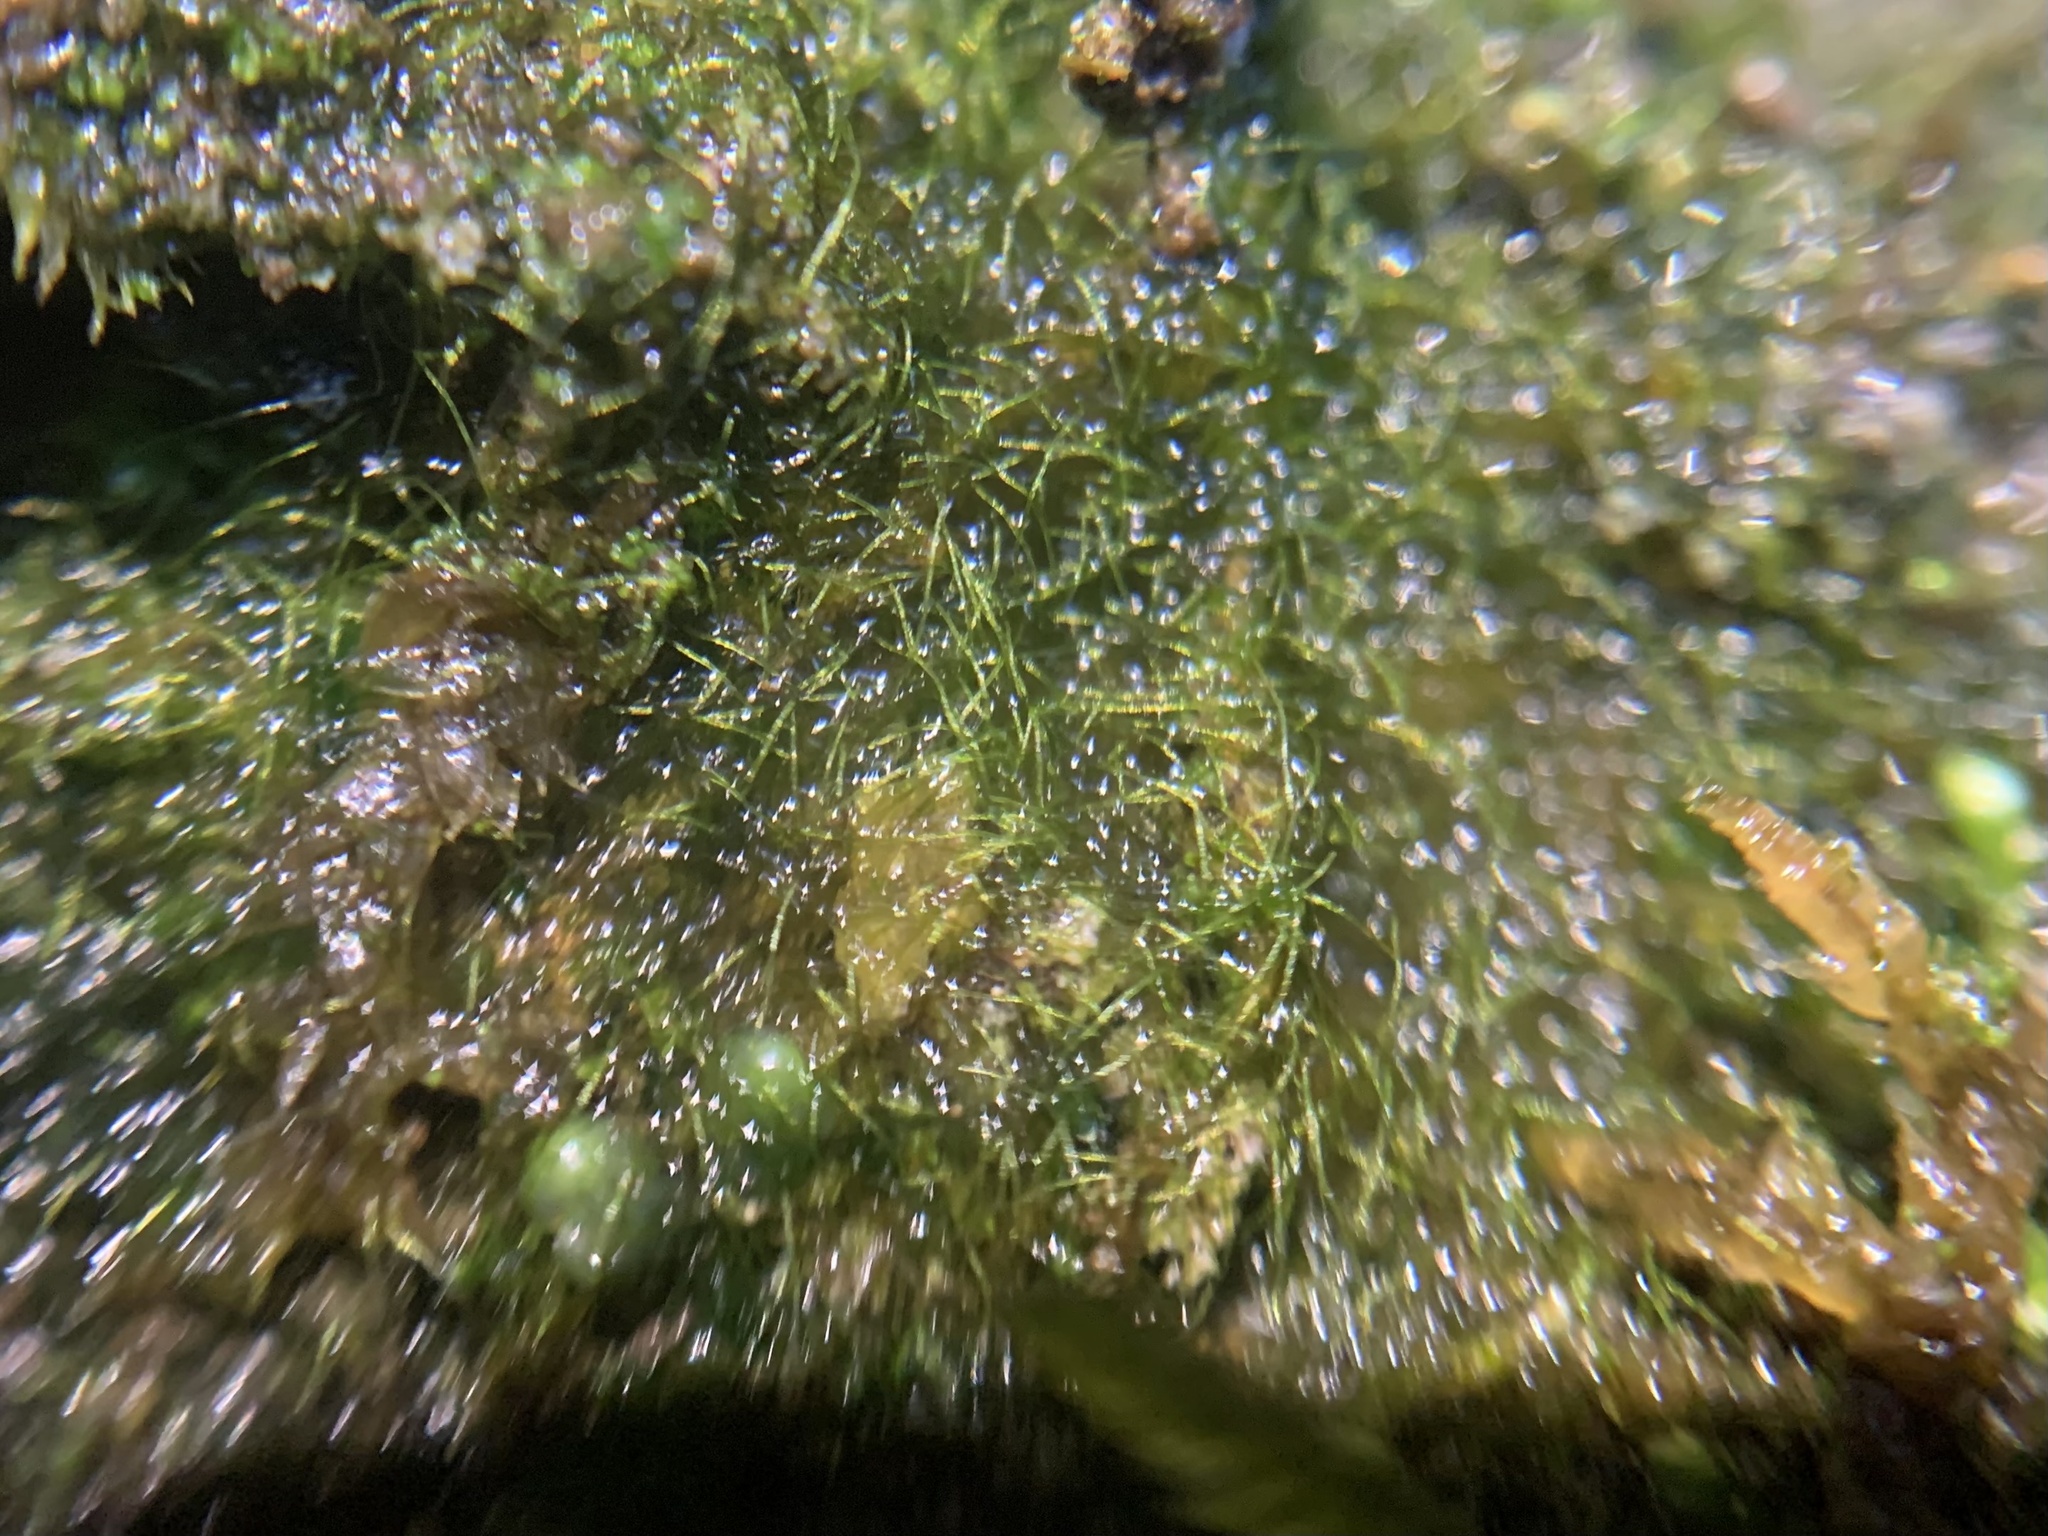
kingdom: Plantae
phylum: Tracheophyta
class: Polypodiopsida
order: Hymenophyllales
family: Hymenophyllaceae
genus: Crepidomanes
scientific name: Crepidomanes intricatum
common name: Weft fern
